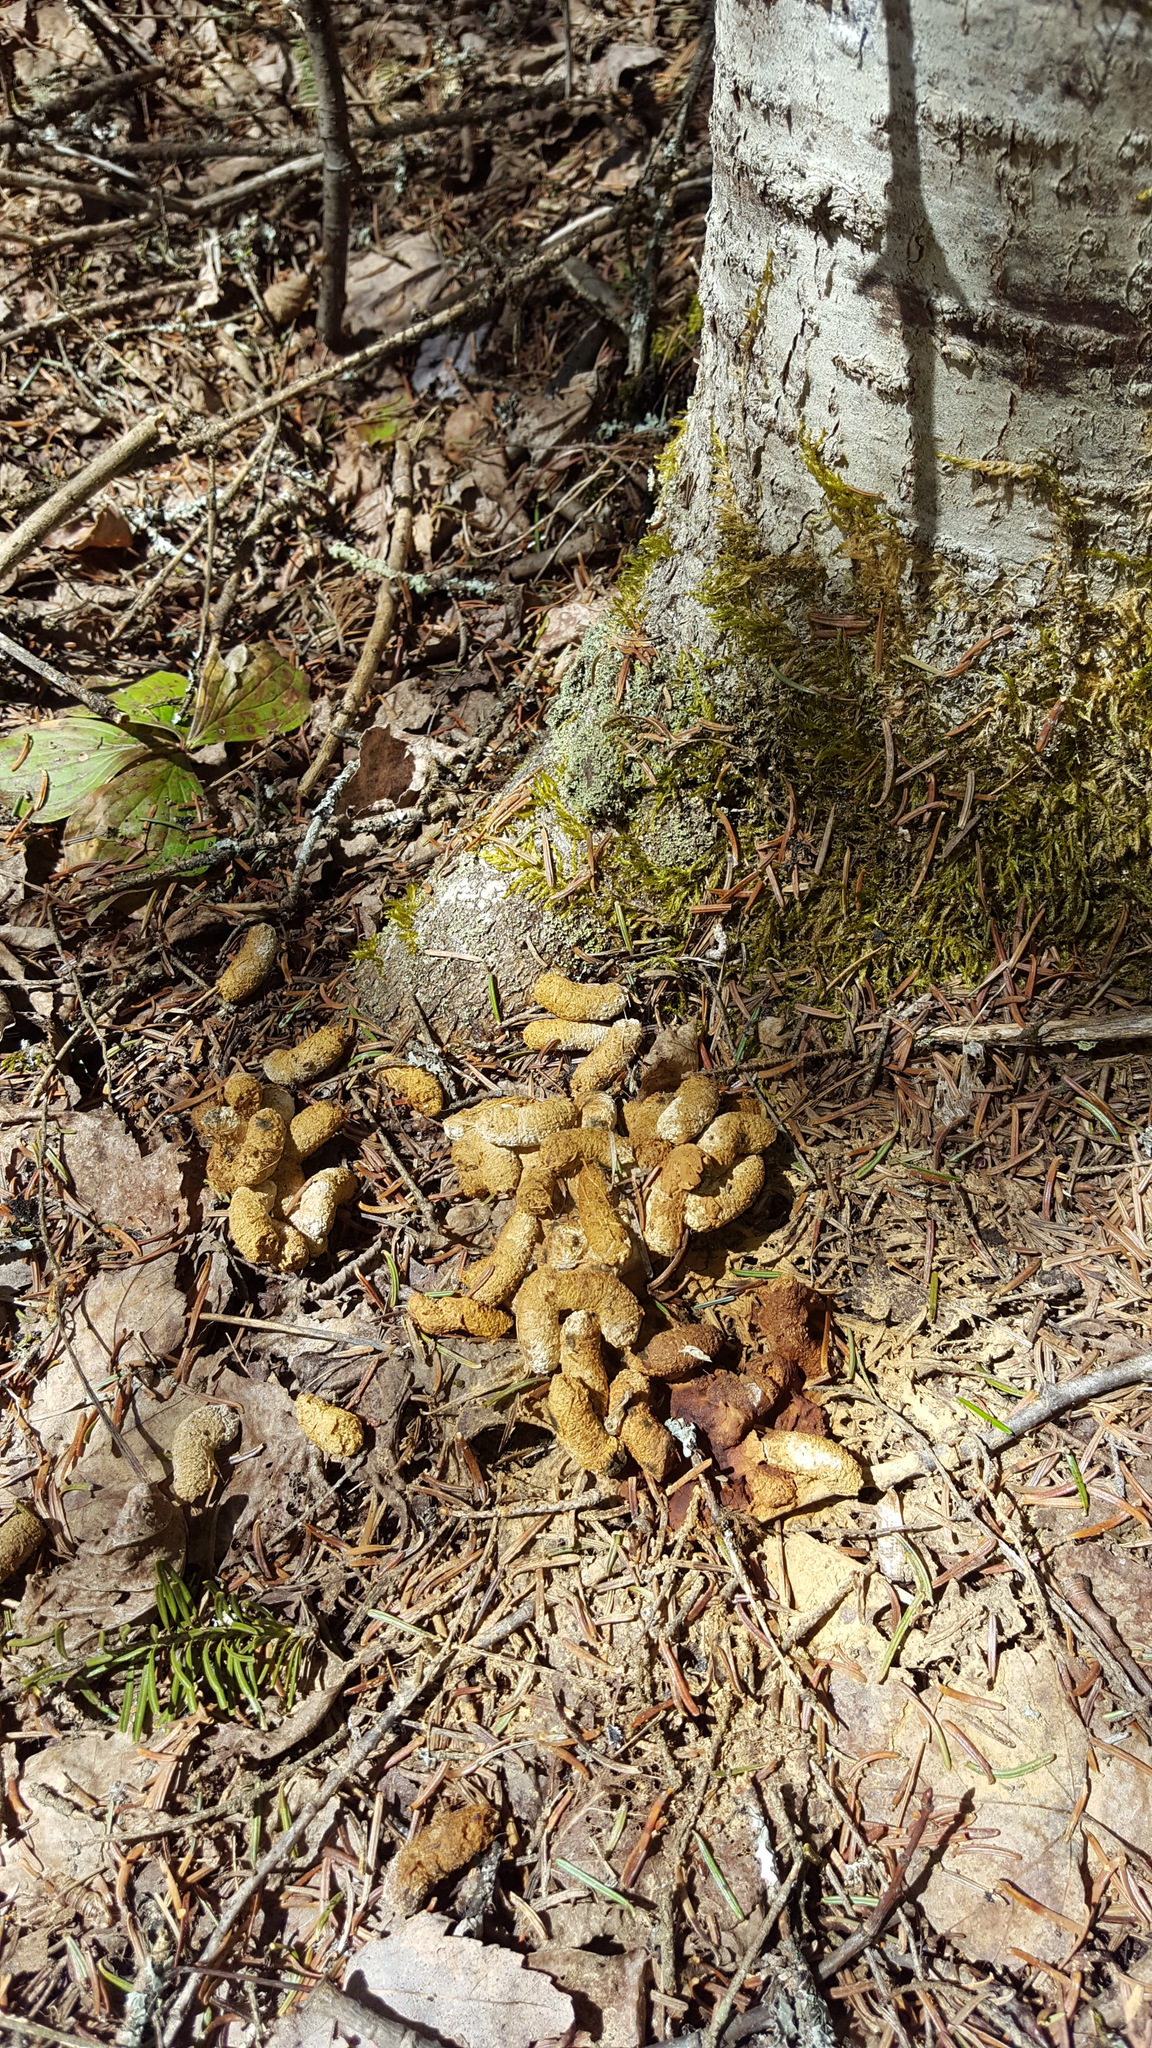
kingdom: Animalia
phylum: Chordata
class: Aves
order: Galliformes
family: Phasianidae
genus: Bonasa
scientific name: Bonasa umbellus
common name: Ruffed grouse
